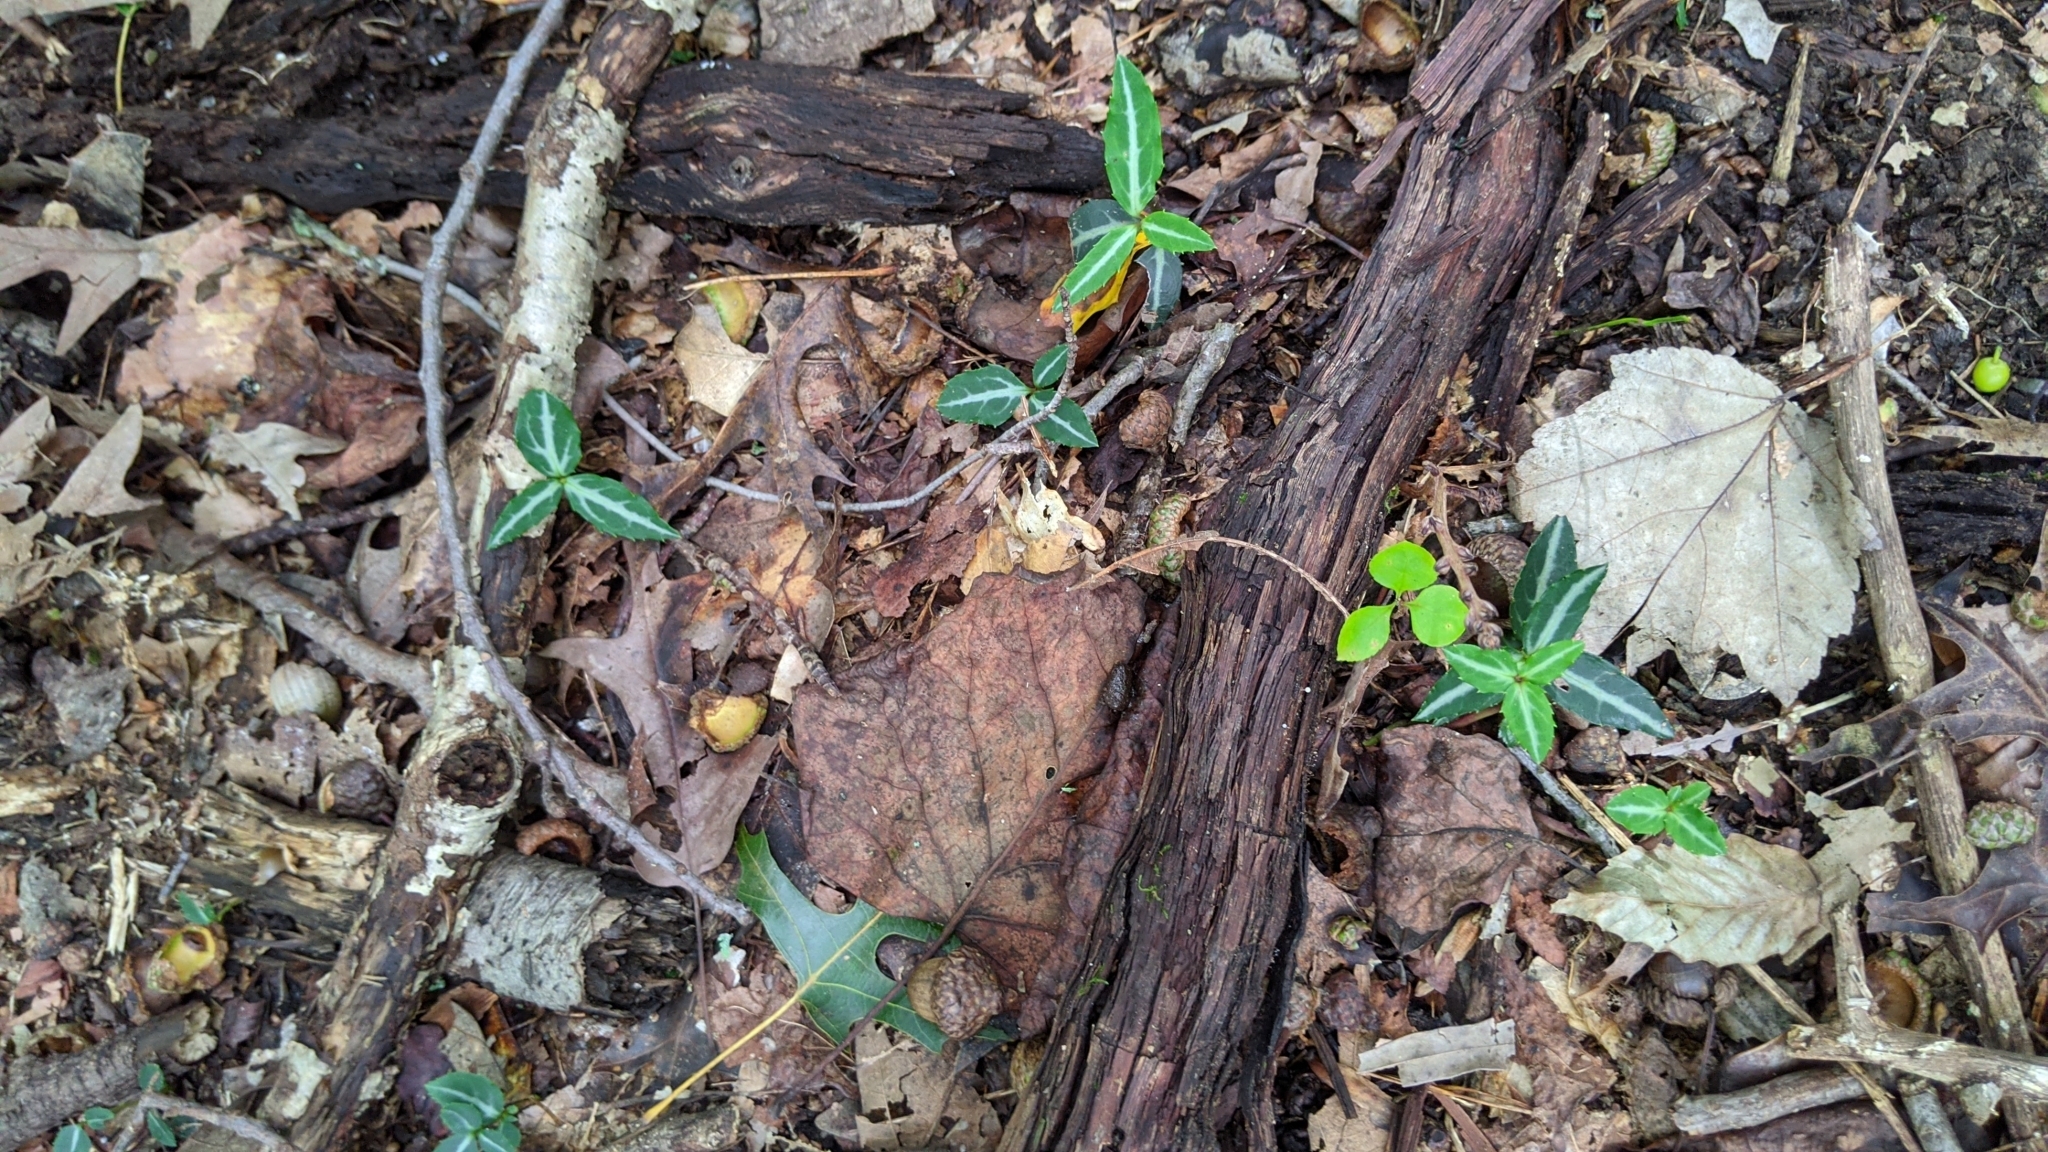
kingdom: Plantae
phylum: Tracheophyta
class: Magnoliopsida
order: Ericales
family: Ericaceae
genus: Chimaphila
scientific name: Chimaphila maculata
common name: Spotted pipsissewa
